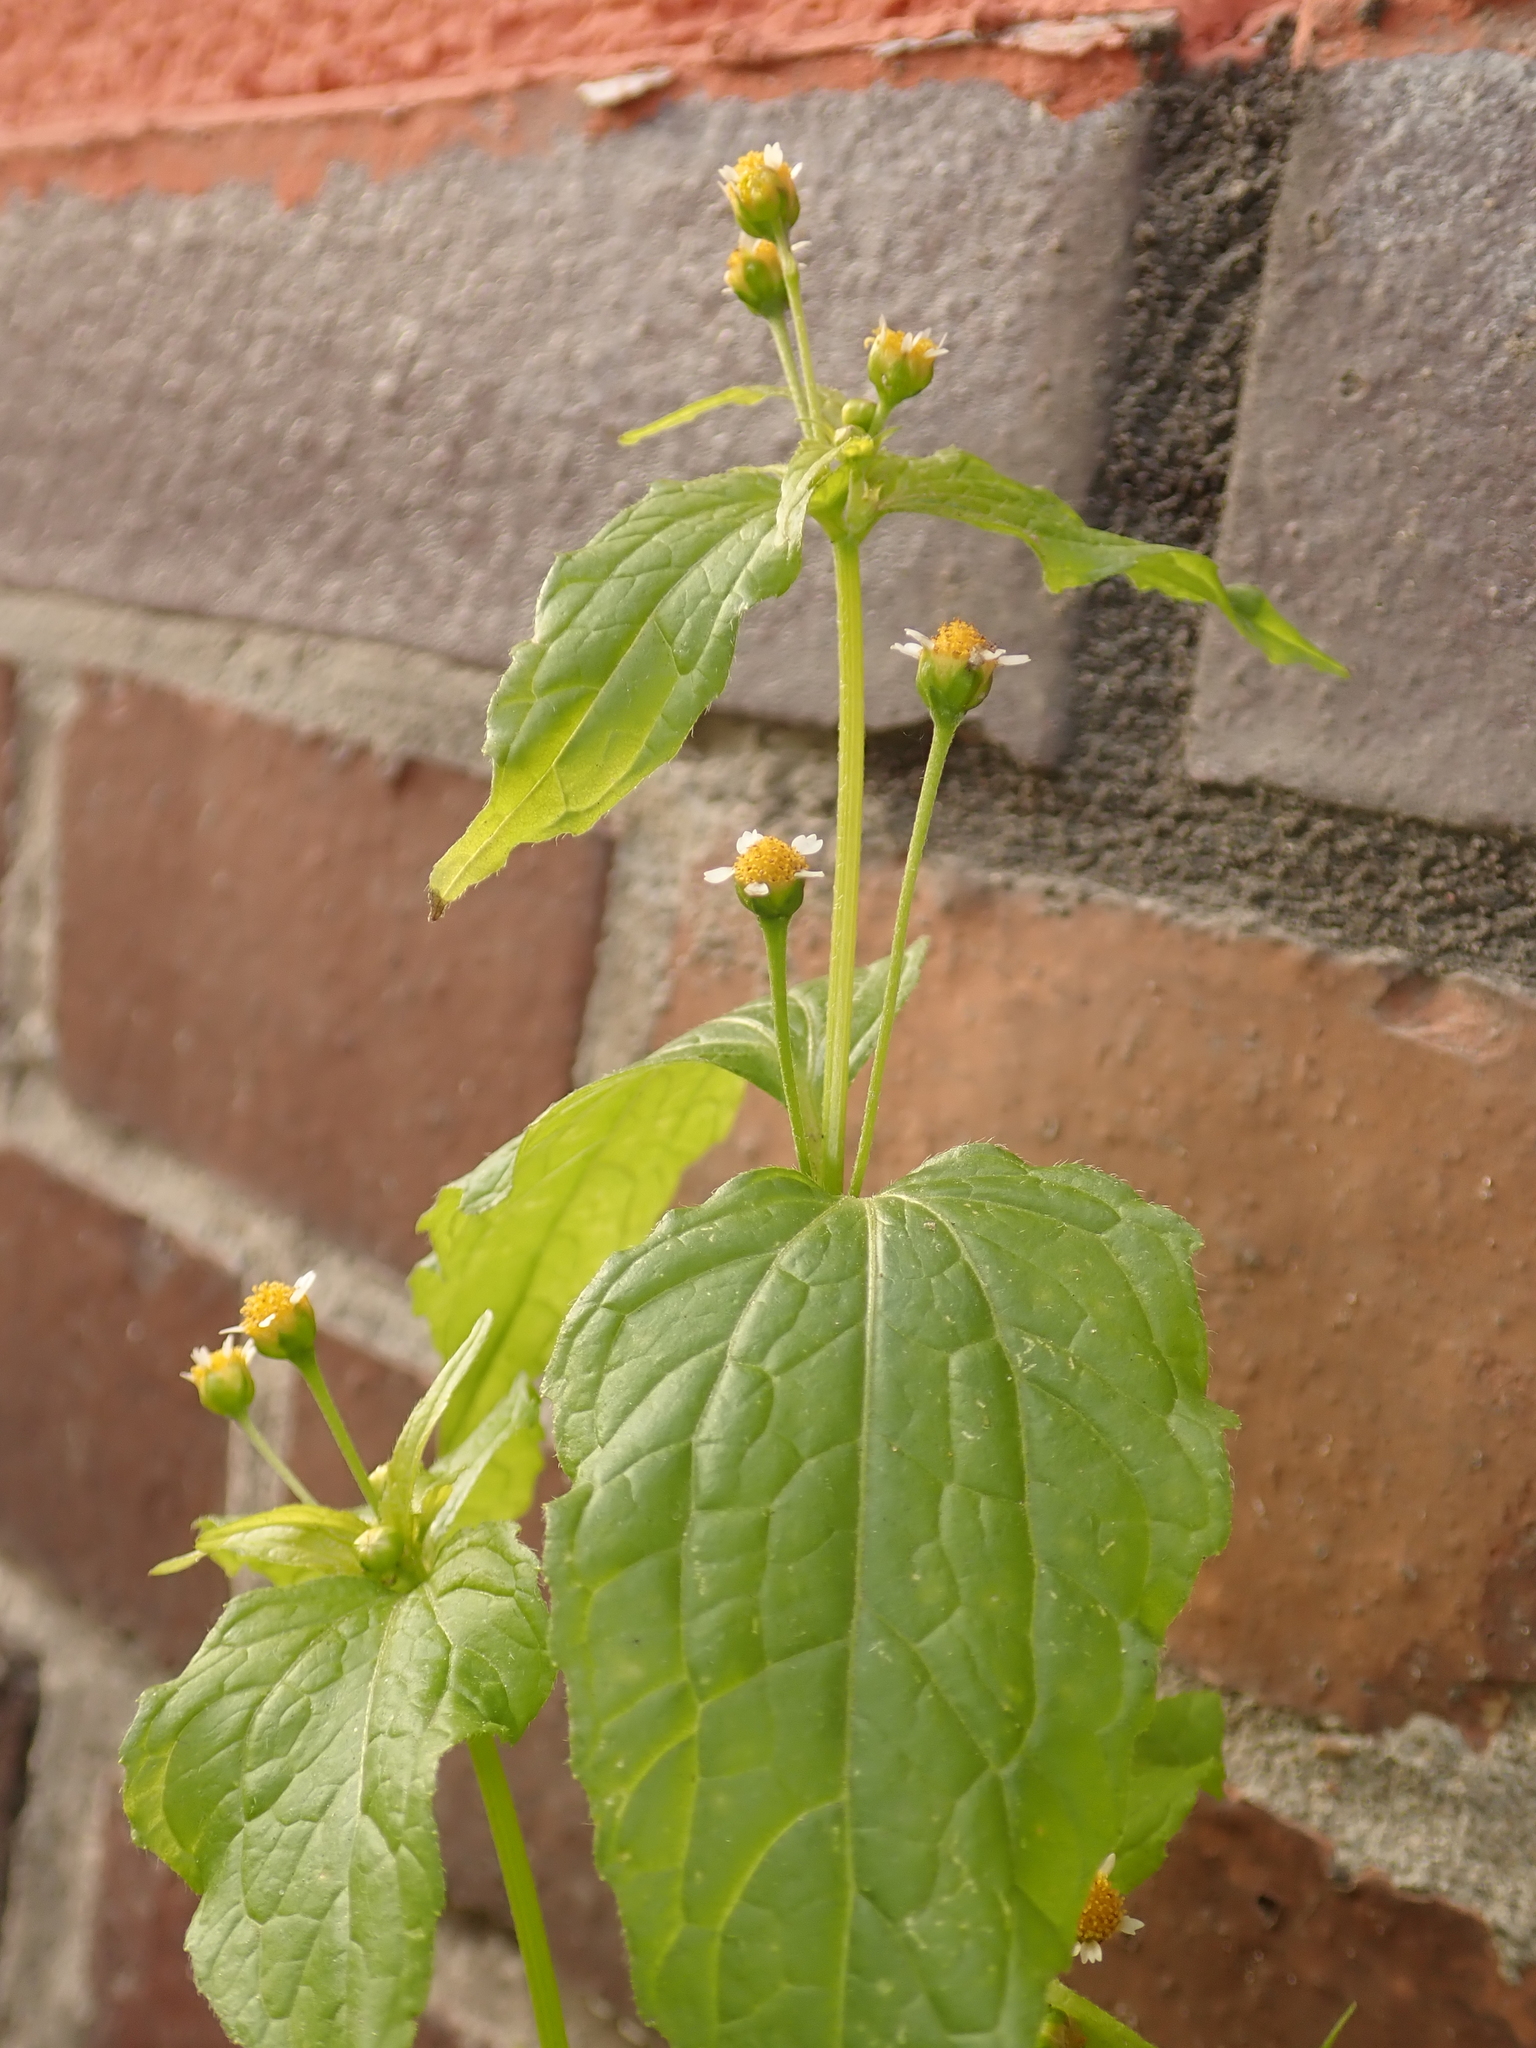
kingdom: Plantae
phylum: Tracheophyta
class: Magnoliopsida
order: Asterales
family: Asteraceae
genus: Galinsoga
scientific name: Galinsoga parviflora
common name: Gallant soldier
